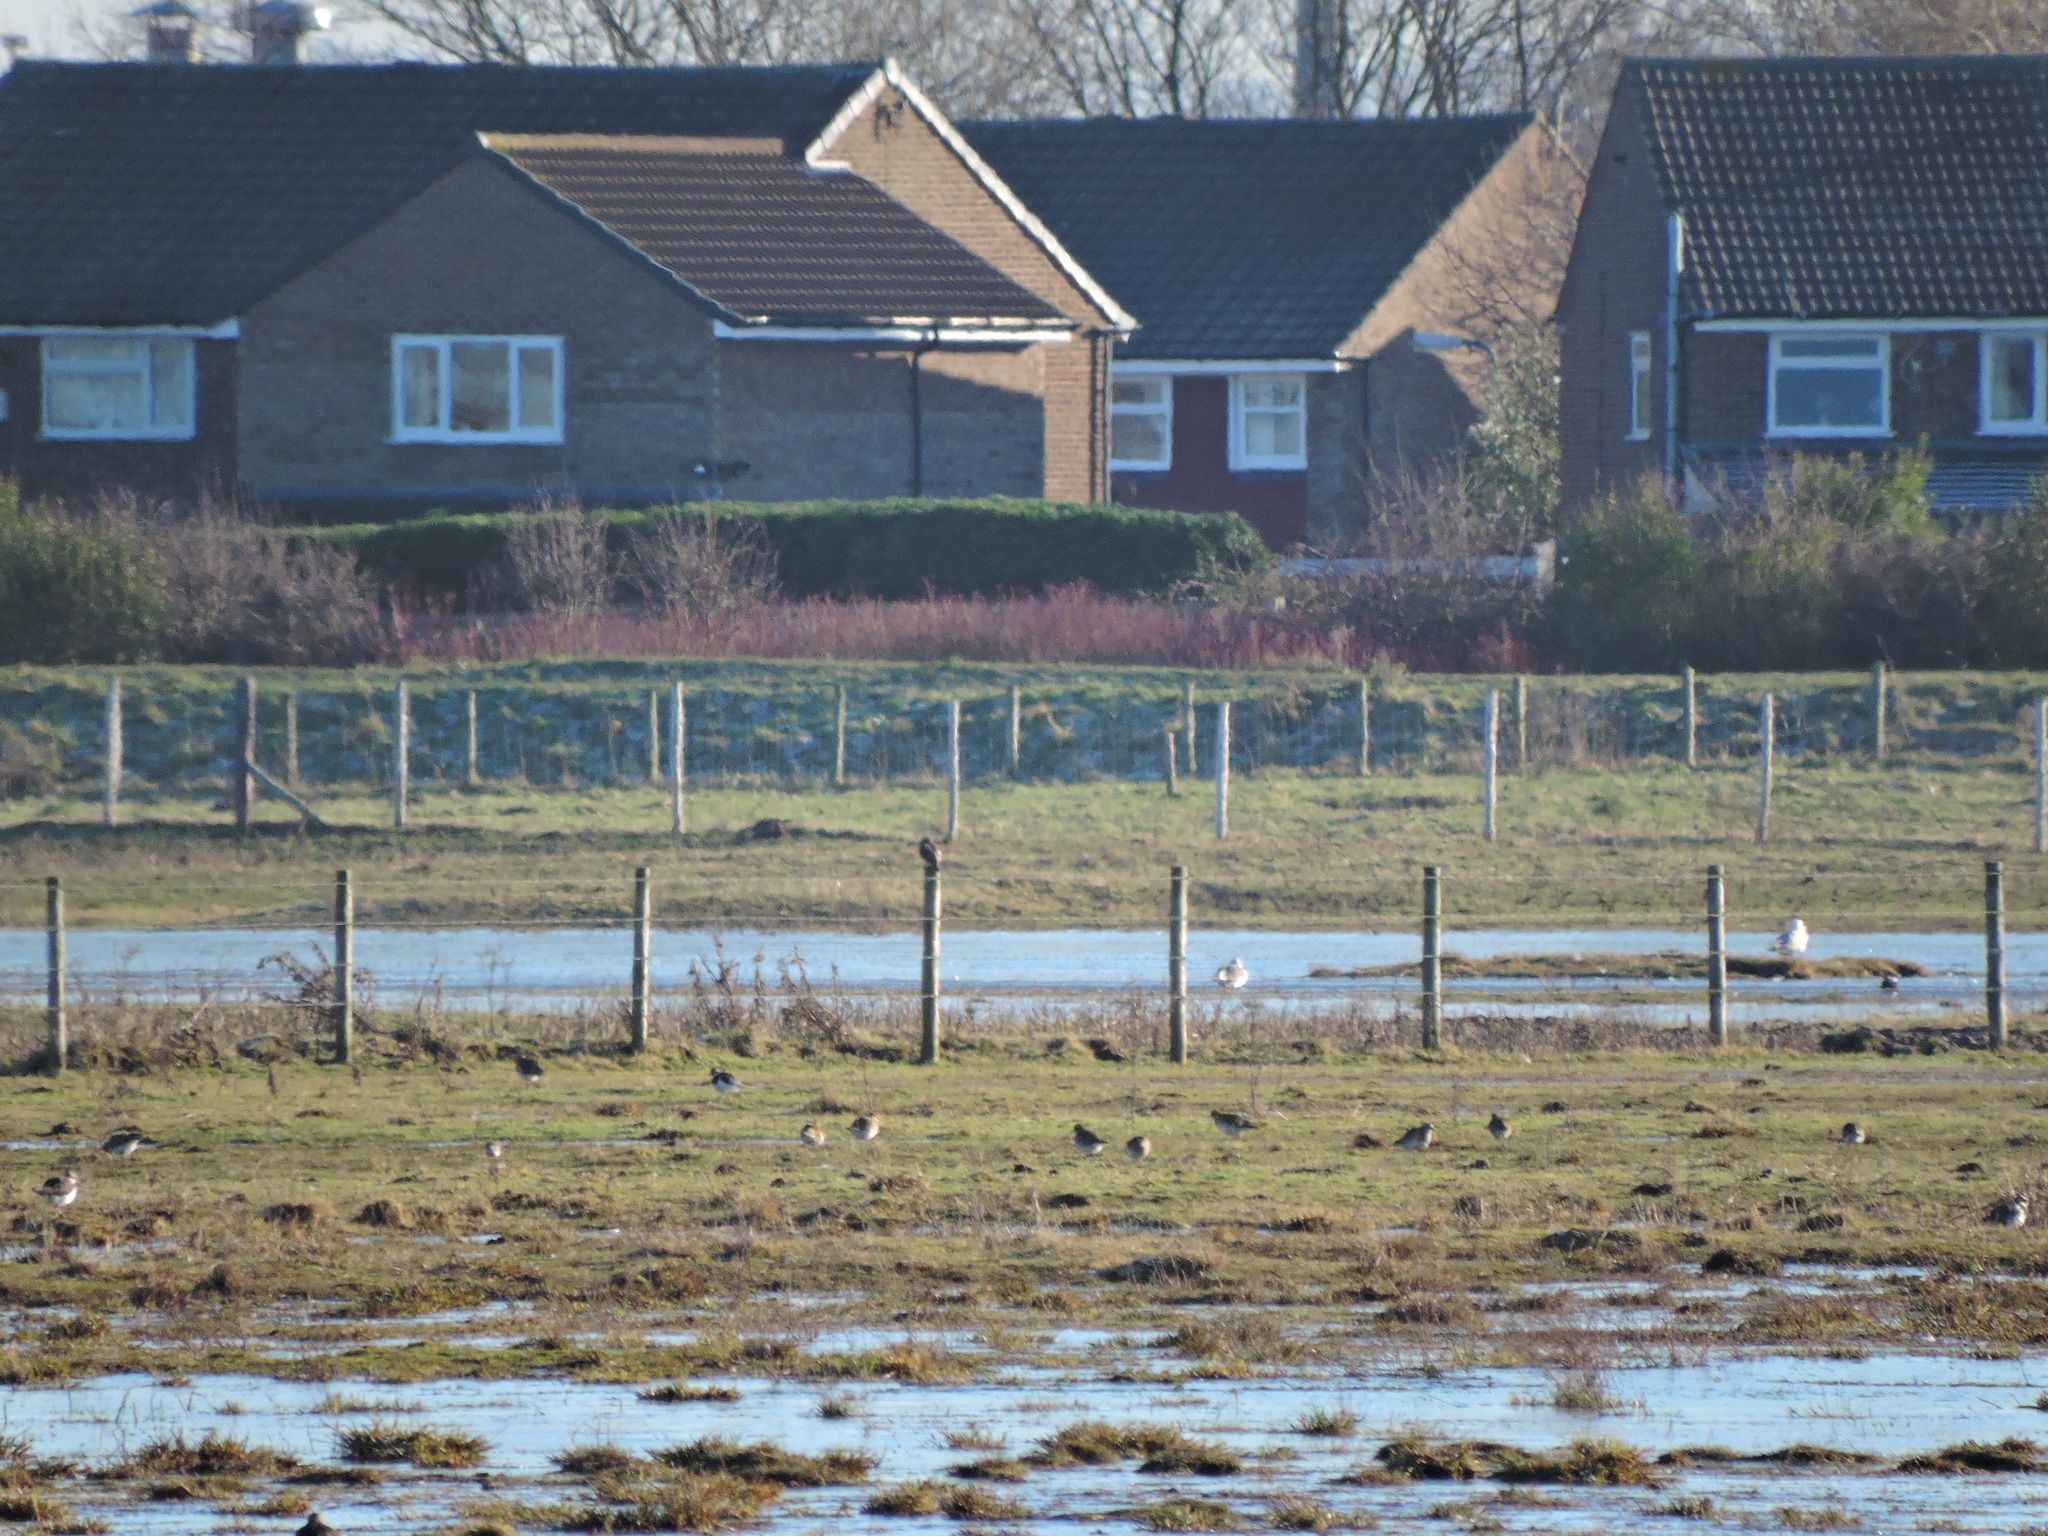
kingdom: Animalia
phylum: Chordata
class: Aves
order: Accipitriformes
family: Accipitridae
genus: Circus
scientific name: Circus aeruginosus
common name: Western marsh harrier
